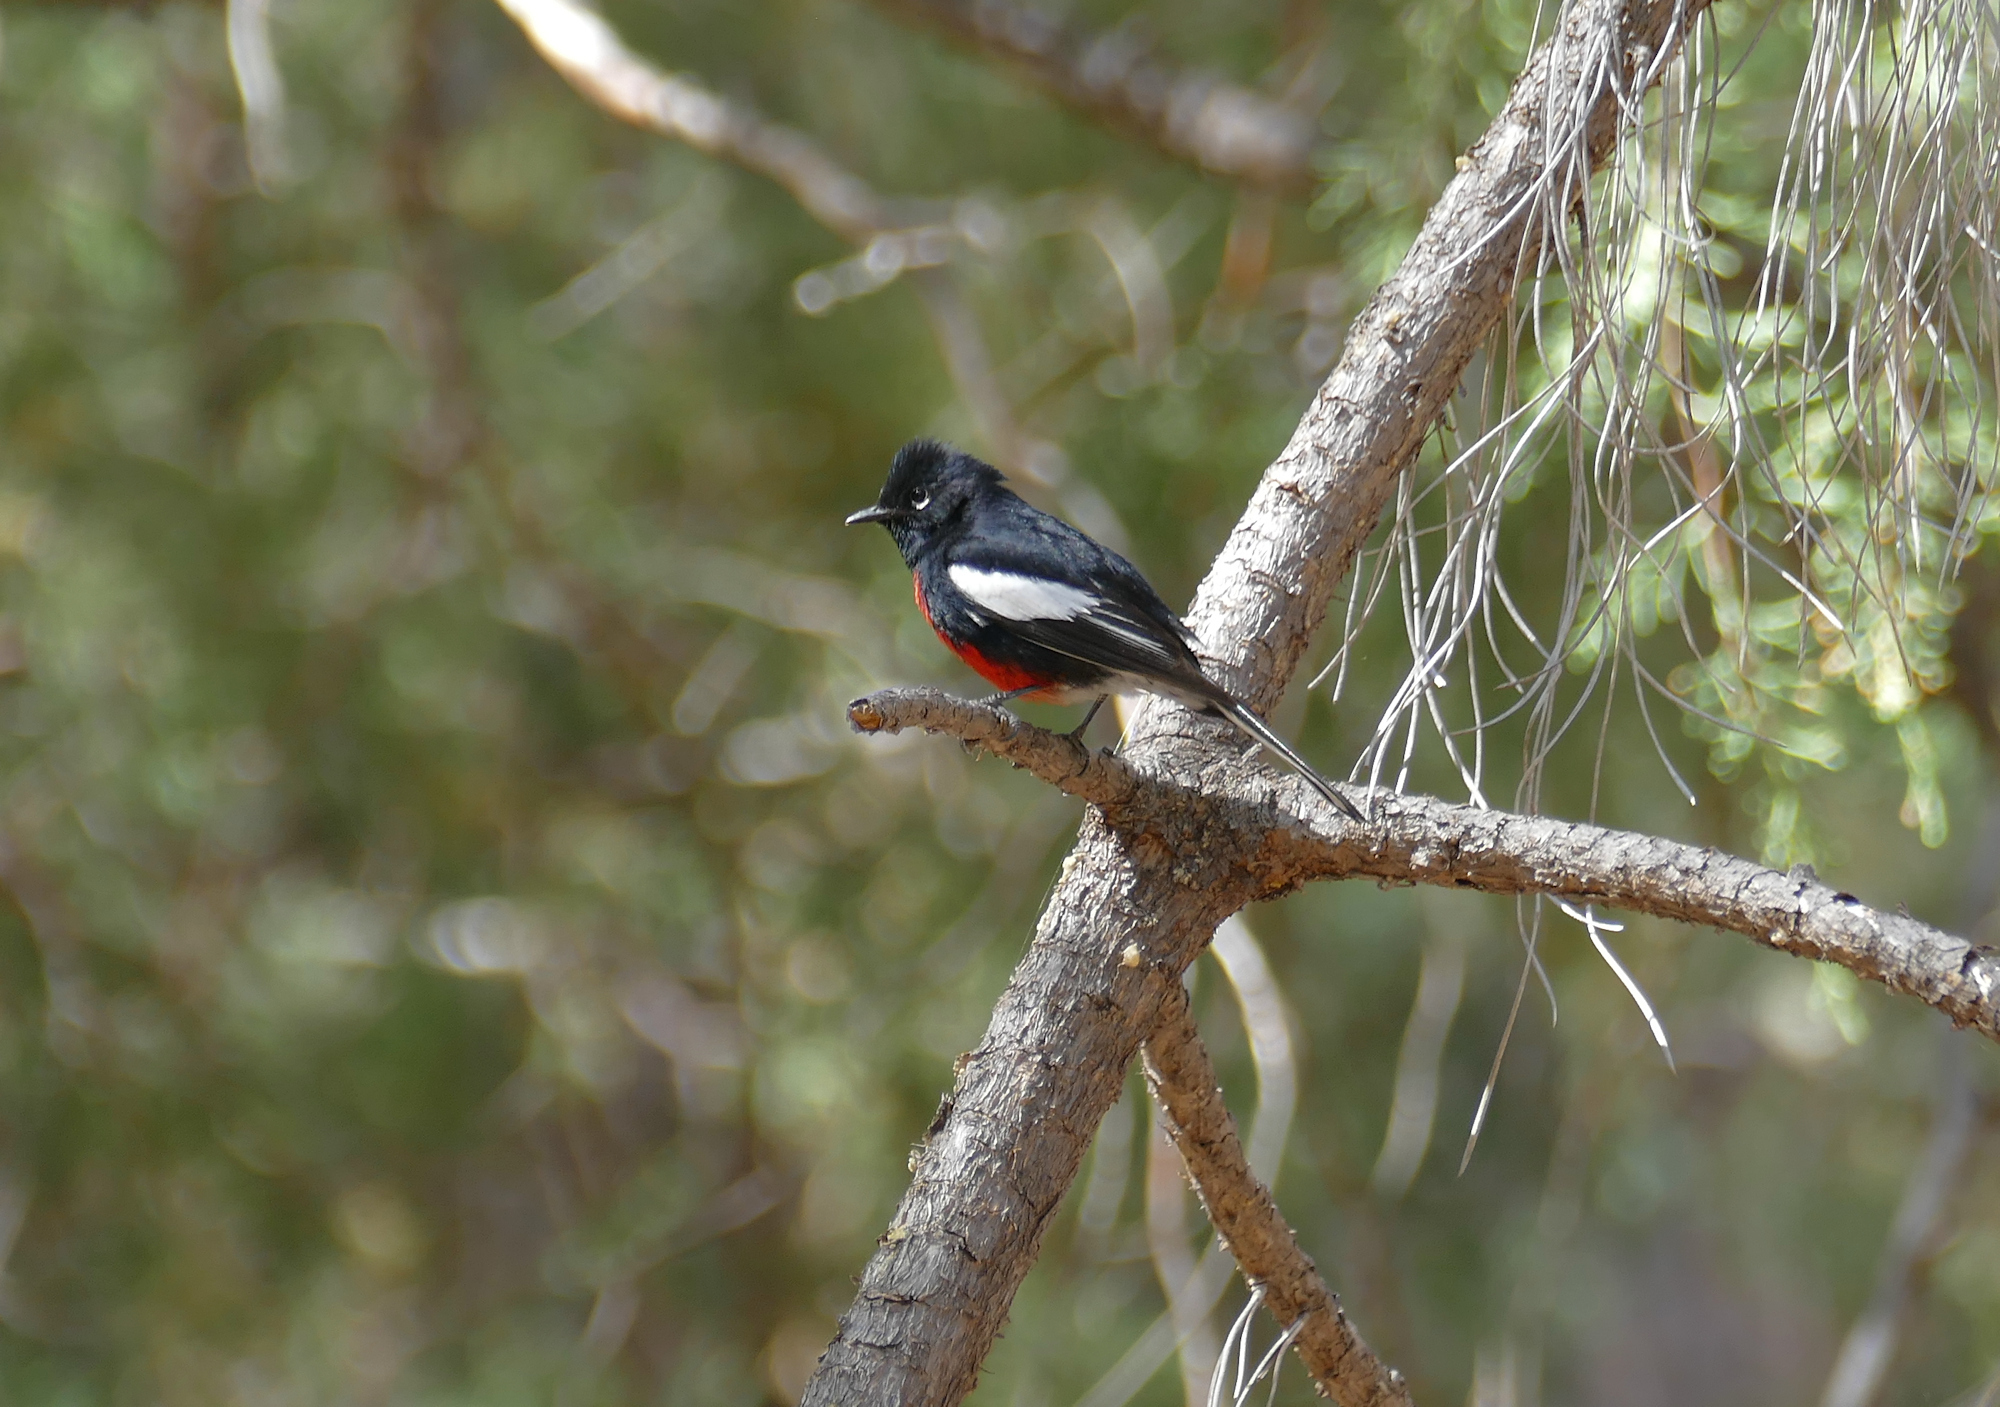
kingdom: Animalia
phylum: Chordata
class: Aves
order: Passeriformes
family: Parulidae
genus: Myioborus
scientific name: Myioborus pictus
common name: Painted whitestart
